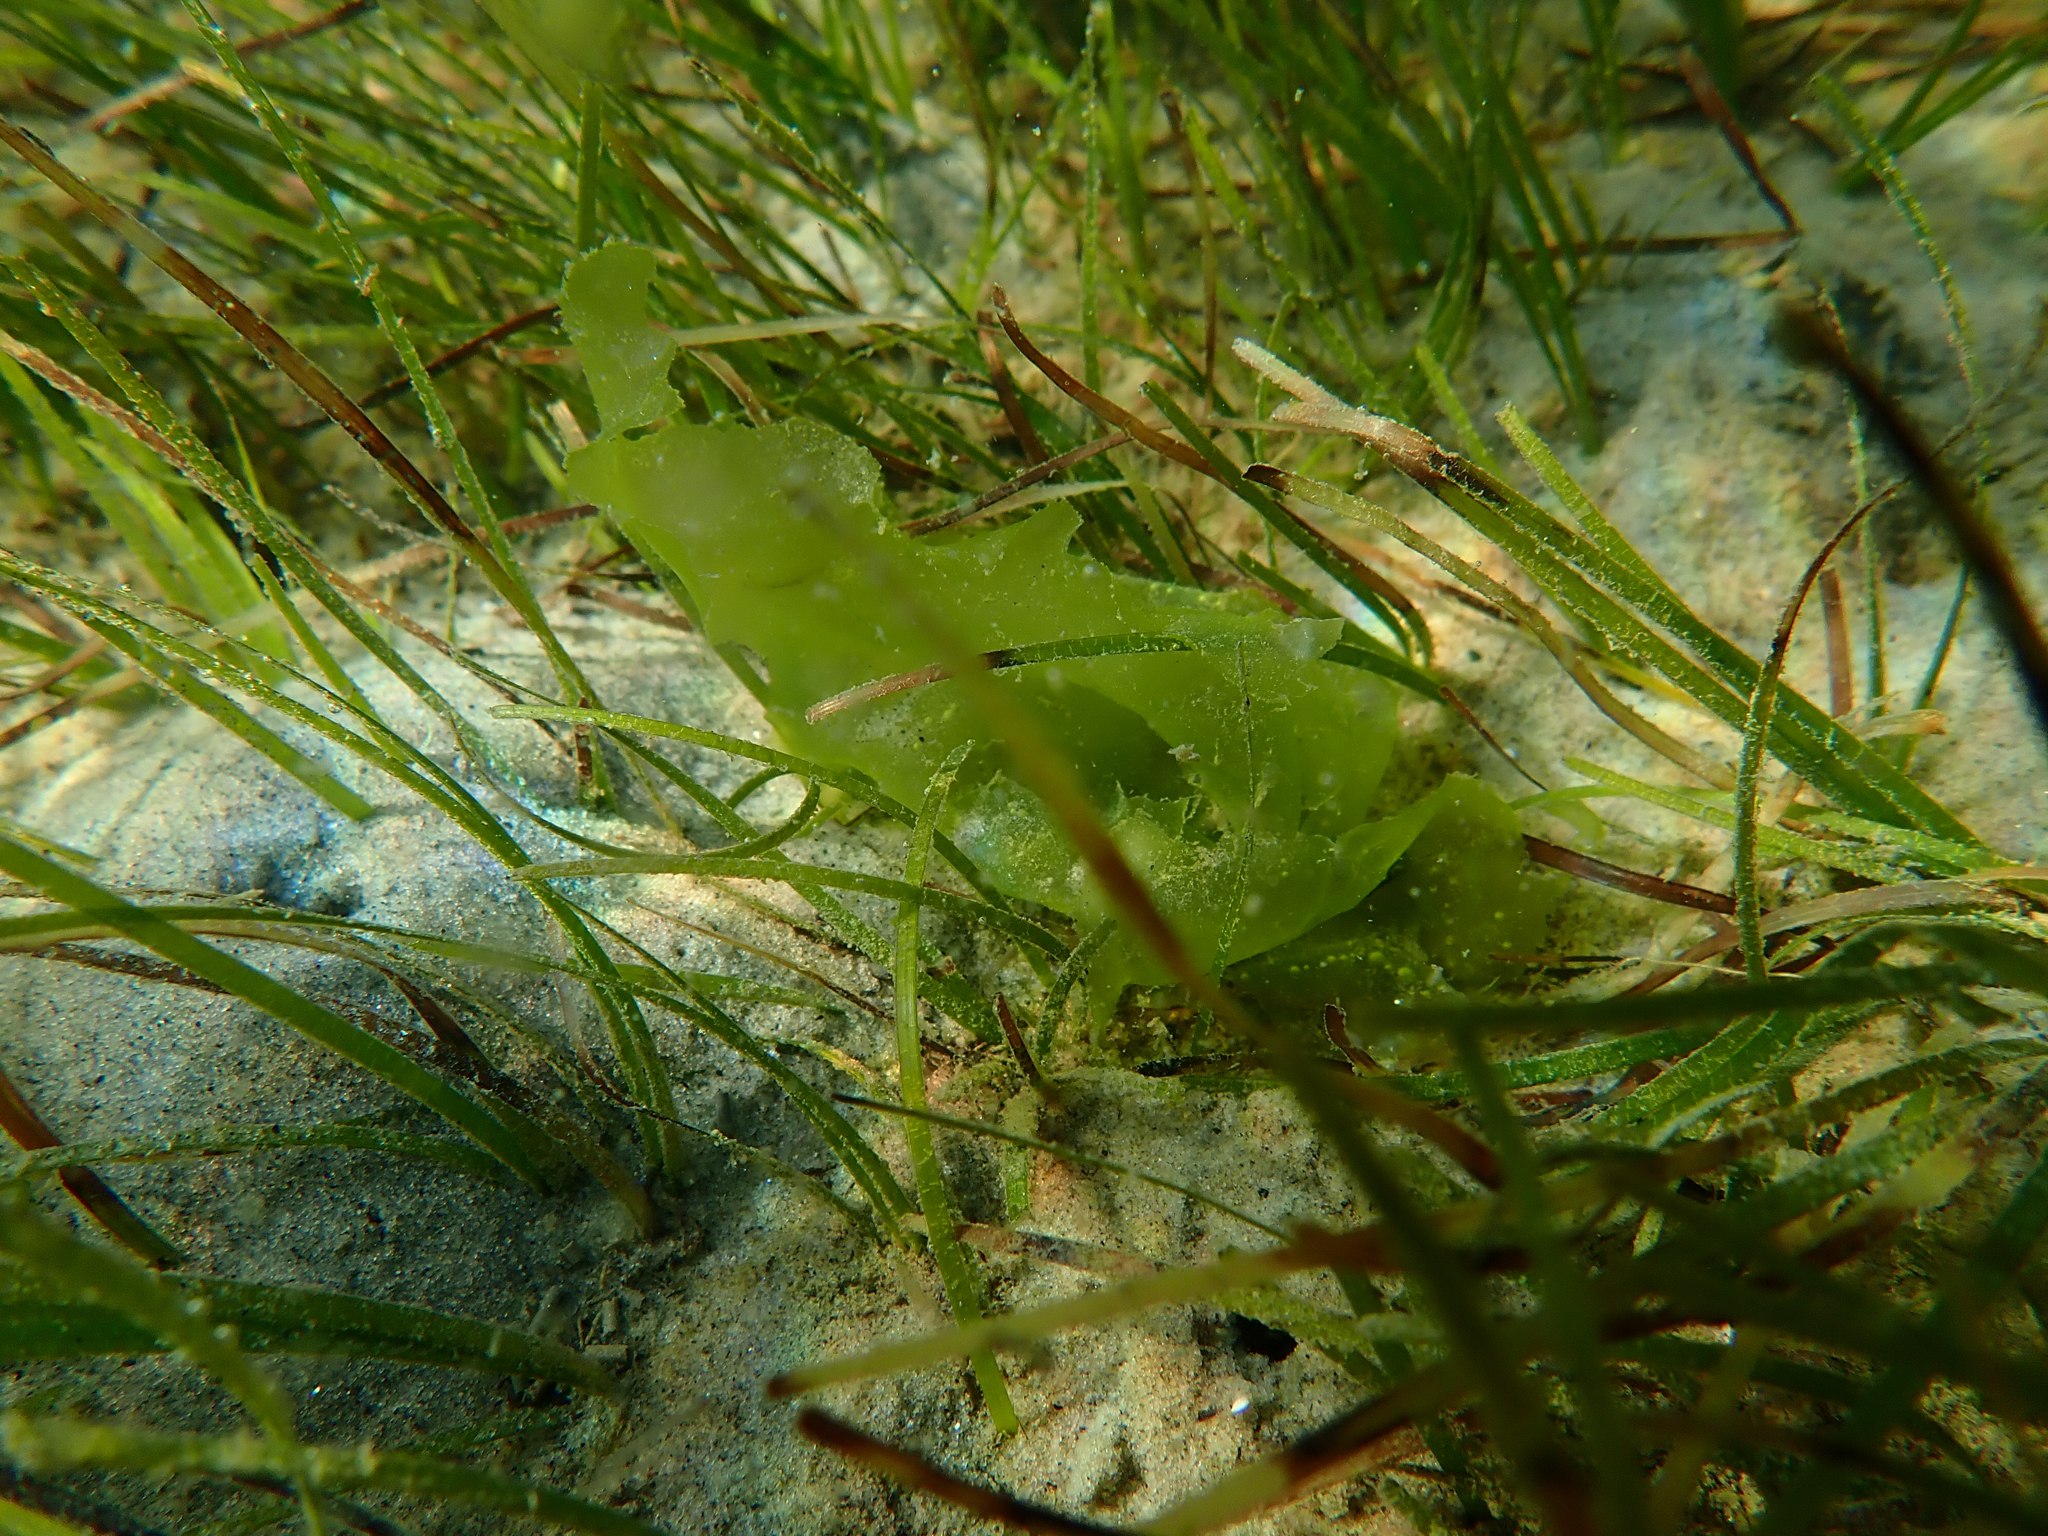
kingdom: Plantae
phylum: Chlorophyta
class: Ulvophyceae
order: Ulvales
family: Ulvaceae
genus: Ulva
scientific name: Ulva
